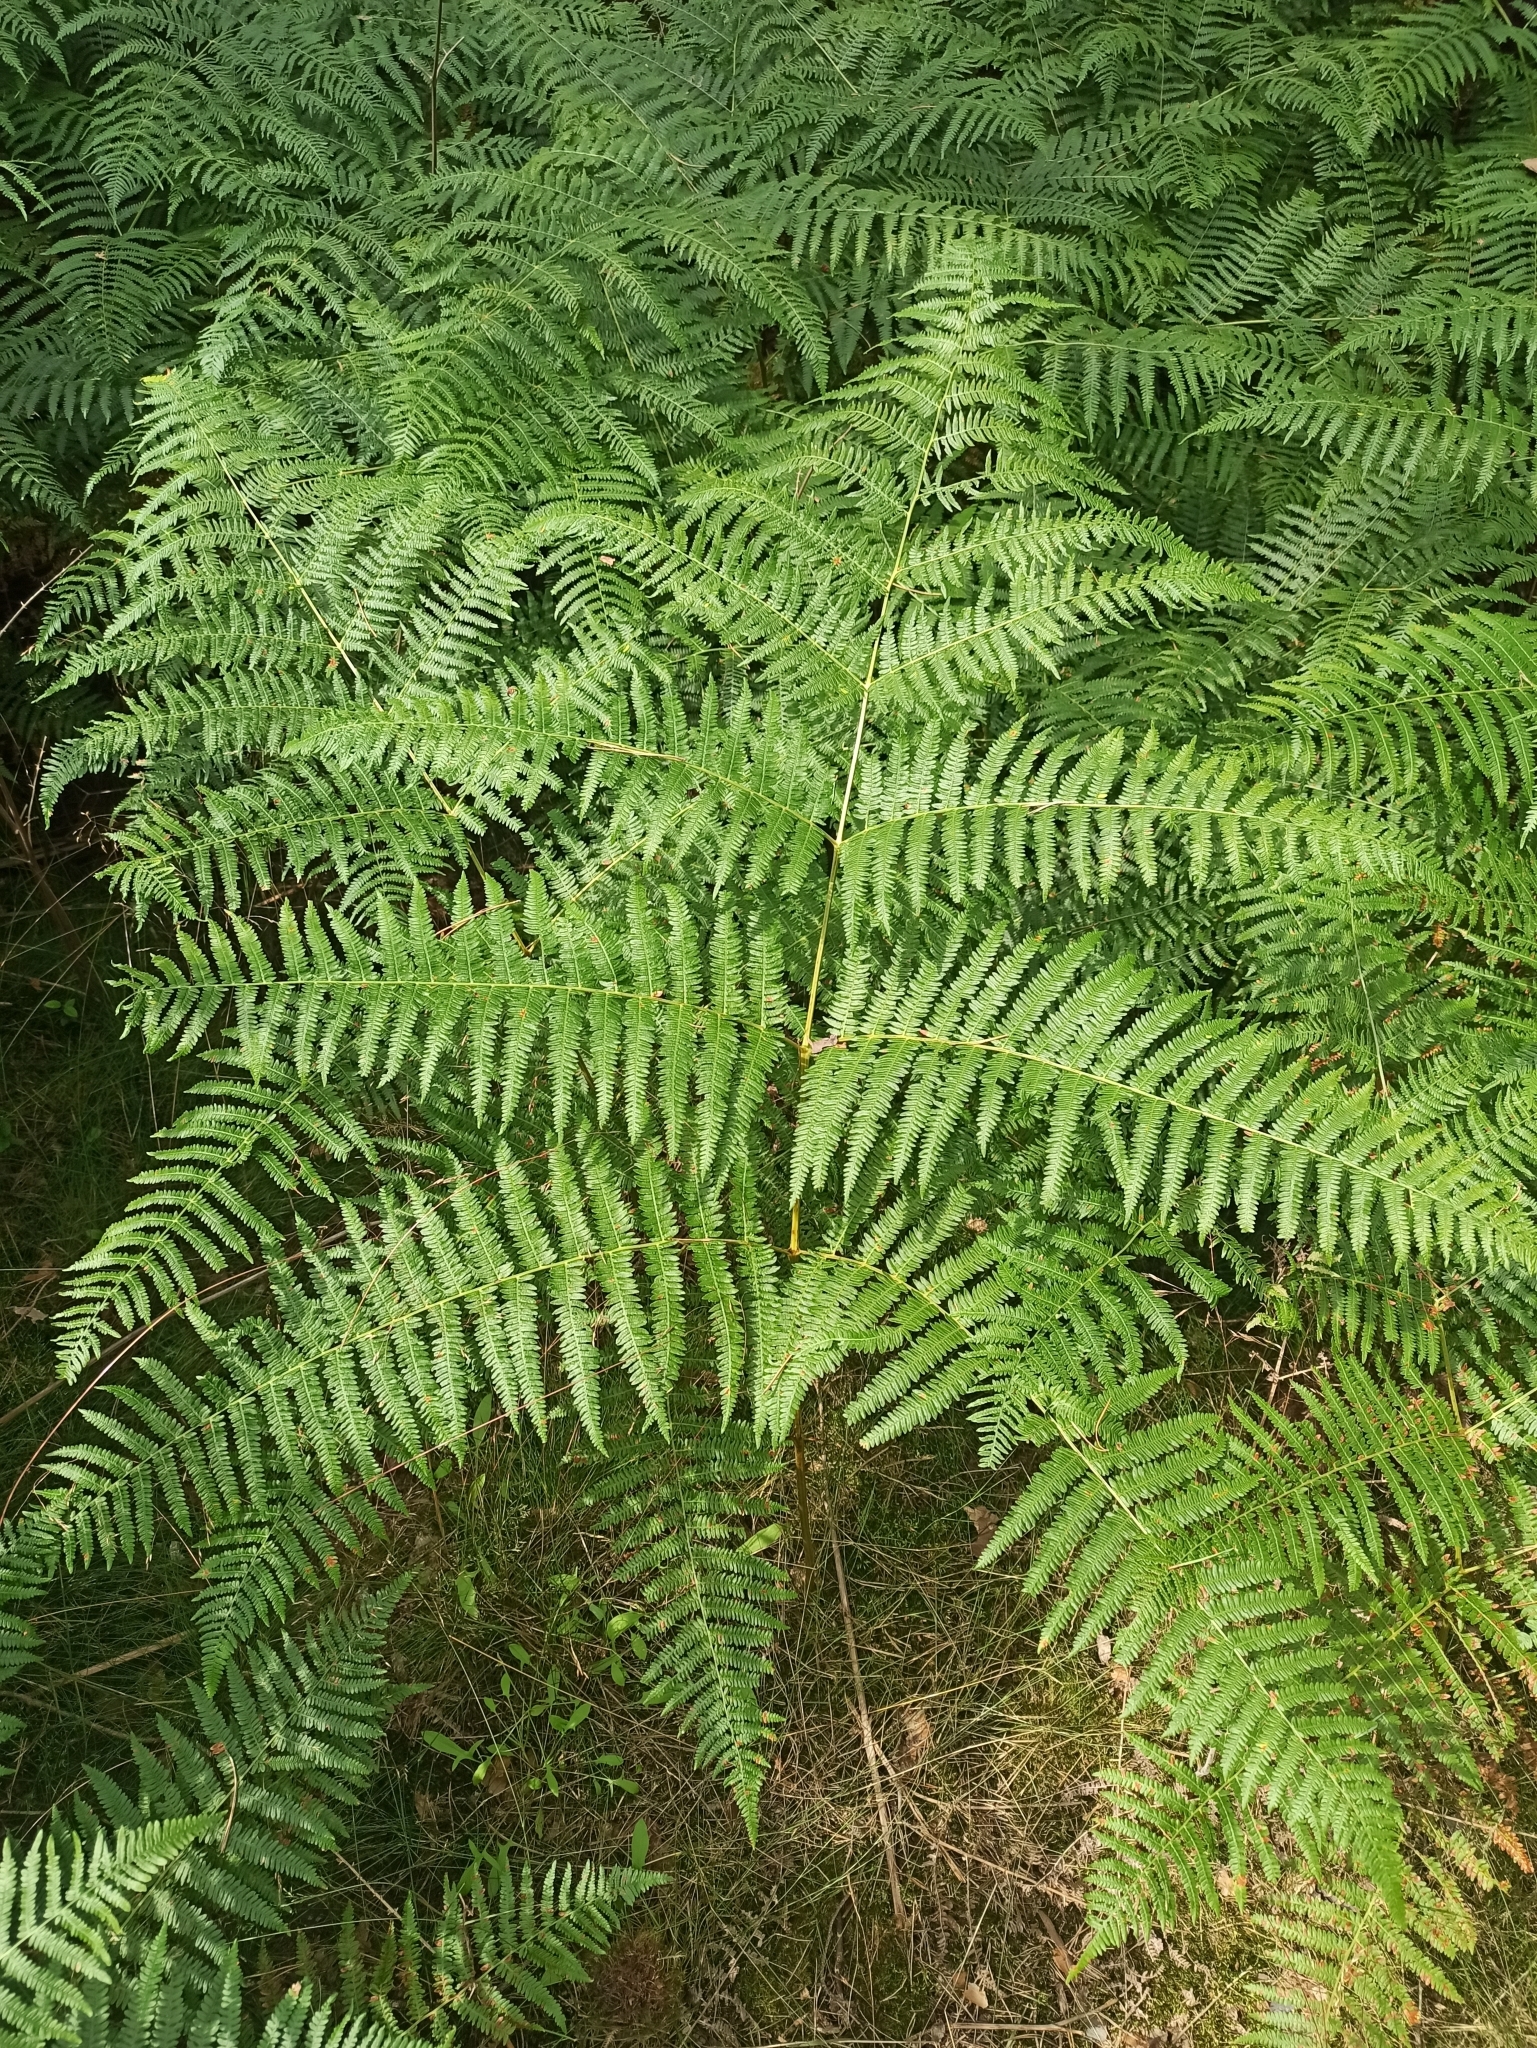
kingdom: Plantae
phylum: Tracheophyta
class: Polypodiopsida
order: Polypodiales
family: Dennstaedtiaceae
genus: Pteridium
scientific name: Pteridium aquilinum
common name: Bracken
